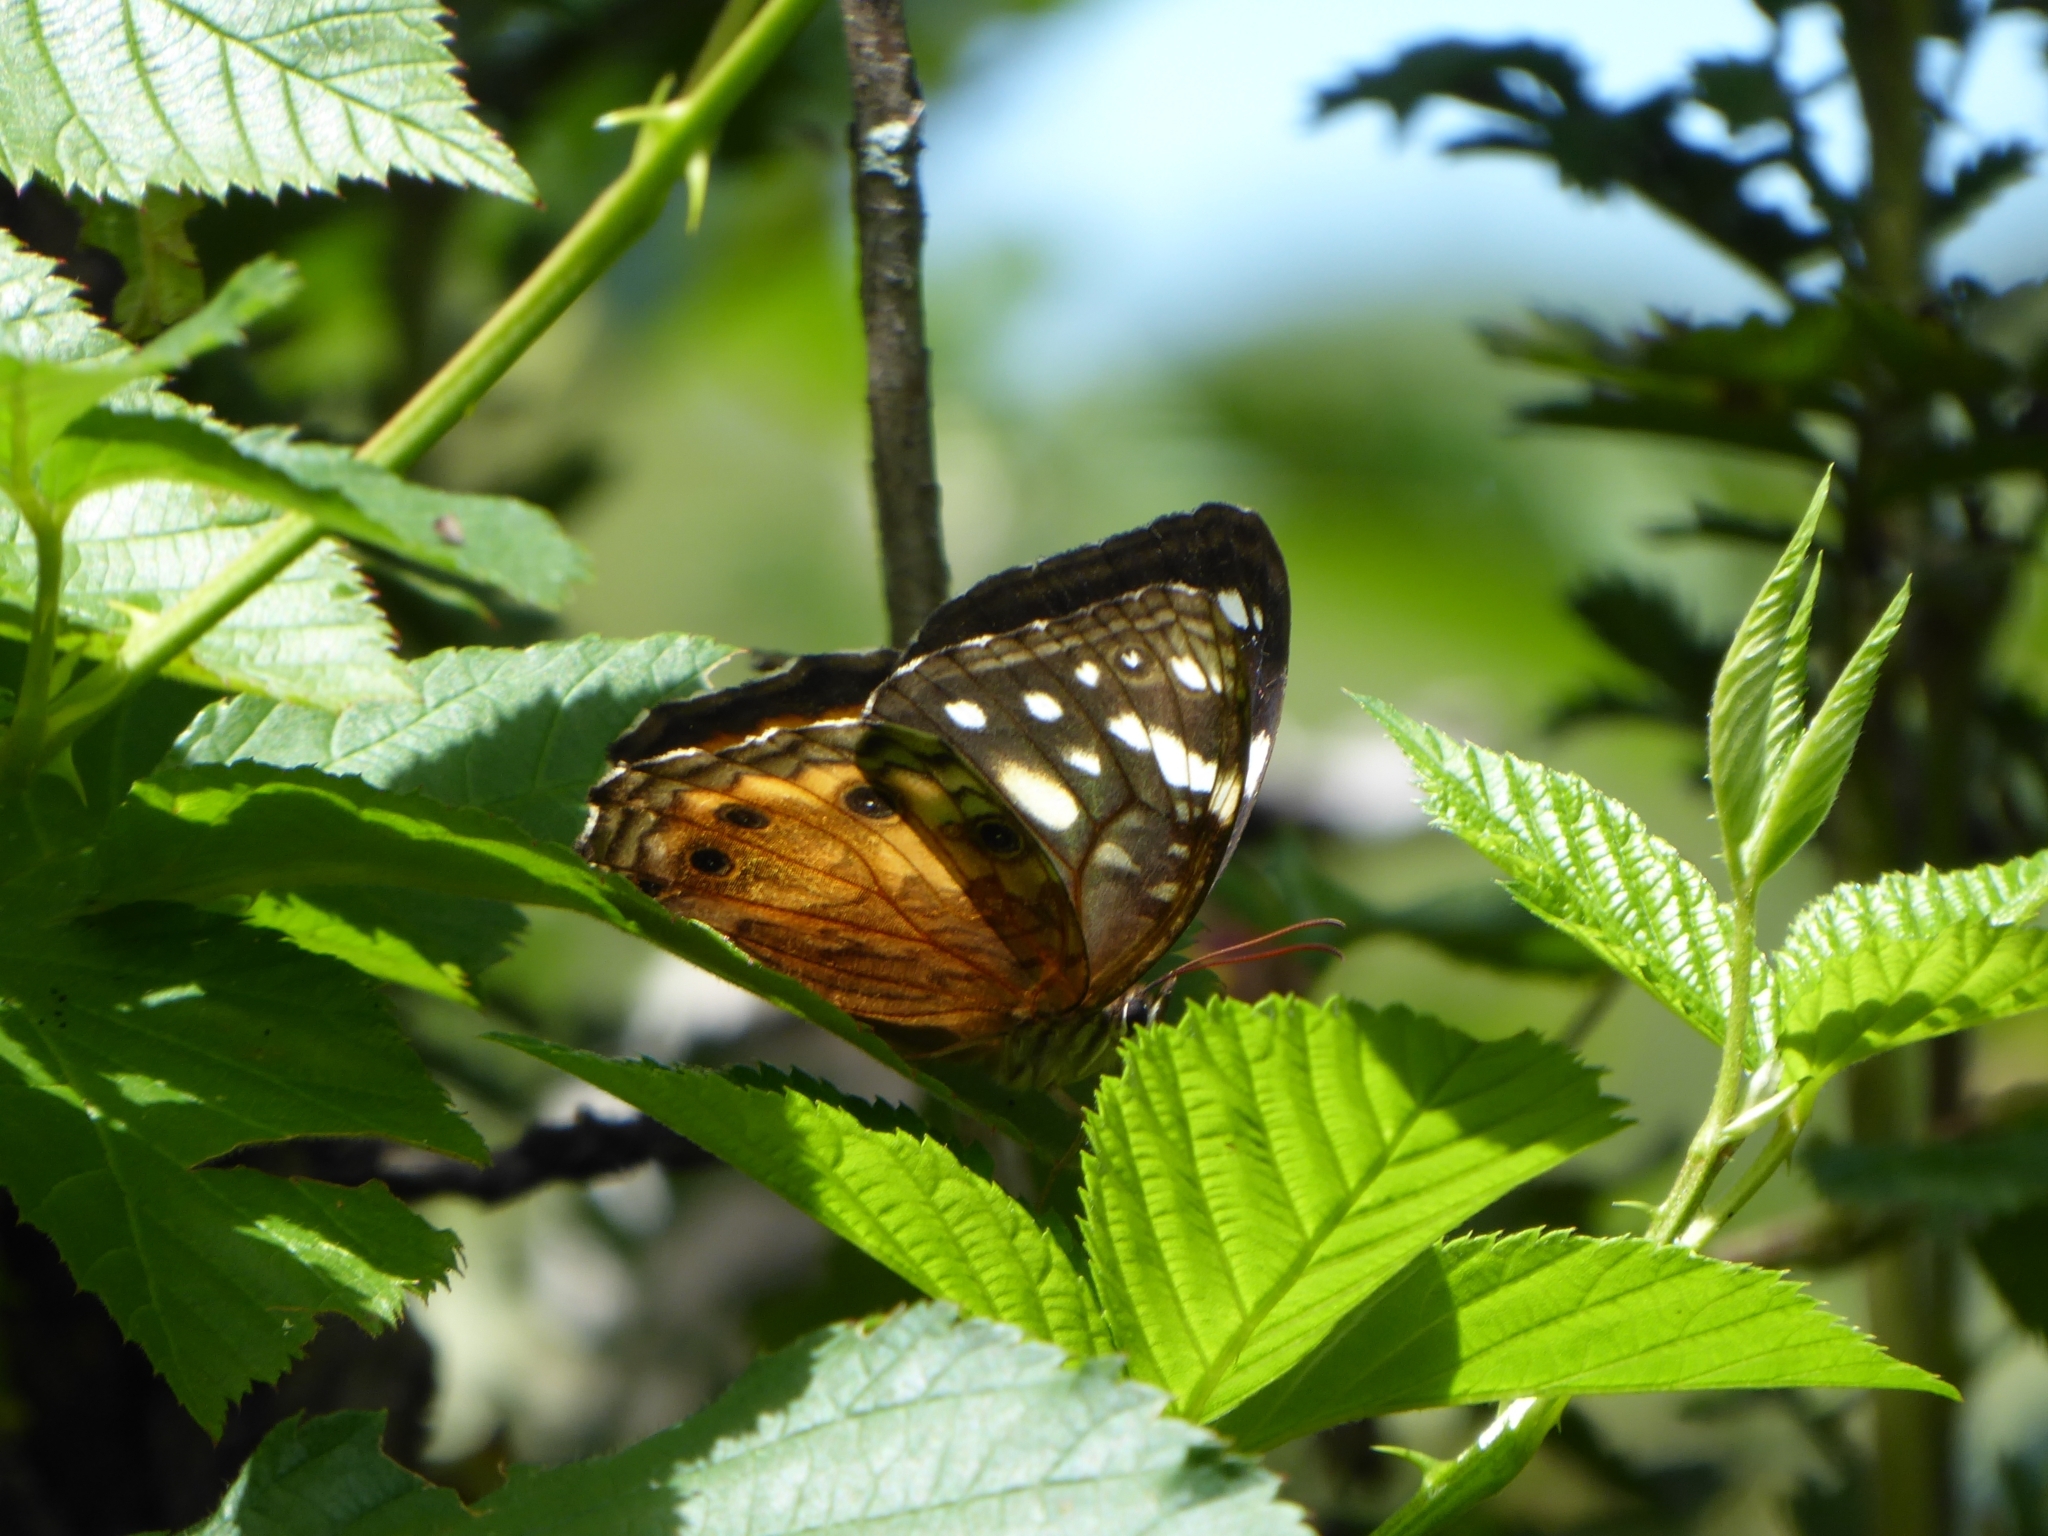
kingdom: Animalia
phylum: Arthropoda
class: Insecta
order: Lepidoptera
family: Nymphalidae
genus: Paralethe
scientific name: Paralethe dendrophilus
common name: Bush beauty
